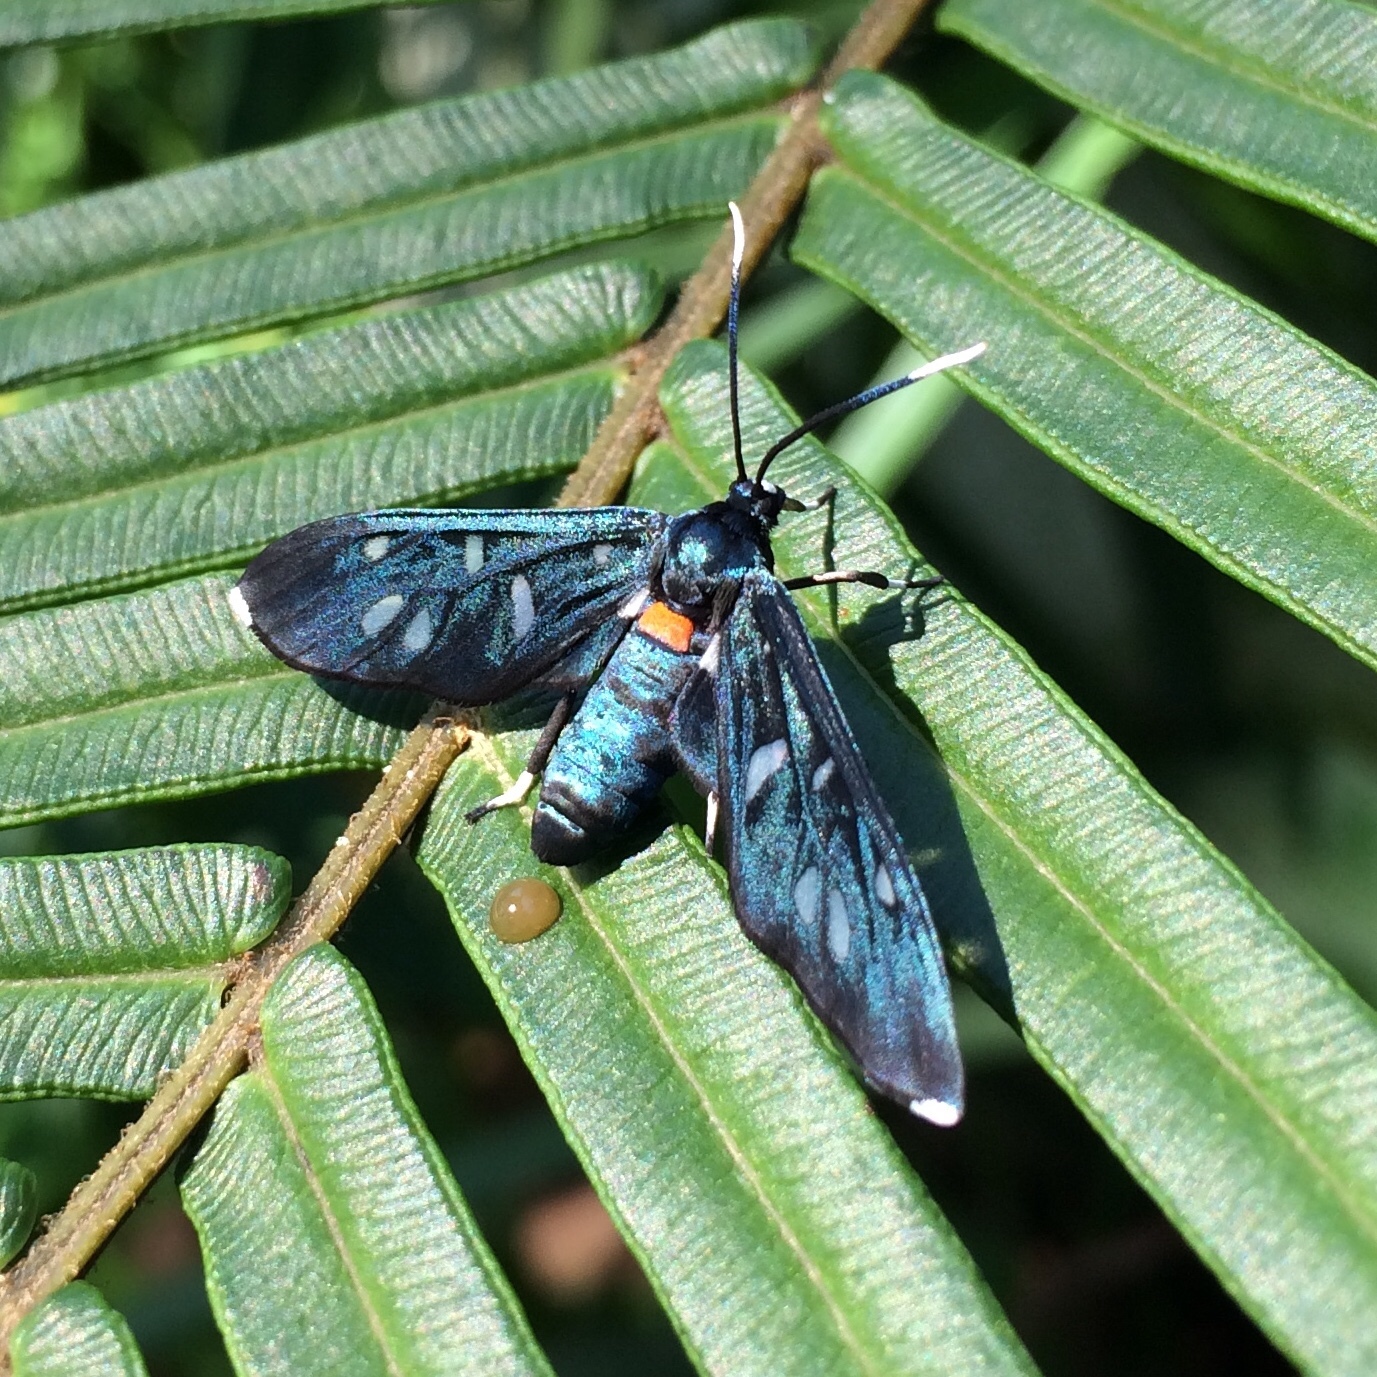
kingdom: Animalia
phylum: Arthropoda
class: Insecta
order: Lepidoptera
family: Erebidae
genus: Amata
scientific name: Amata kuhlweini
